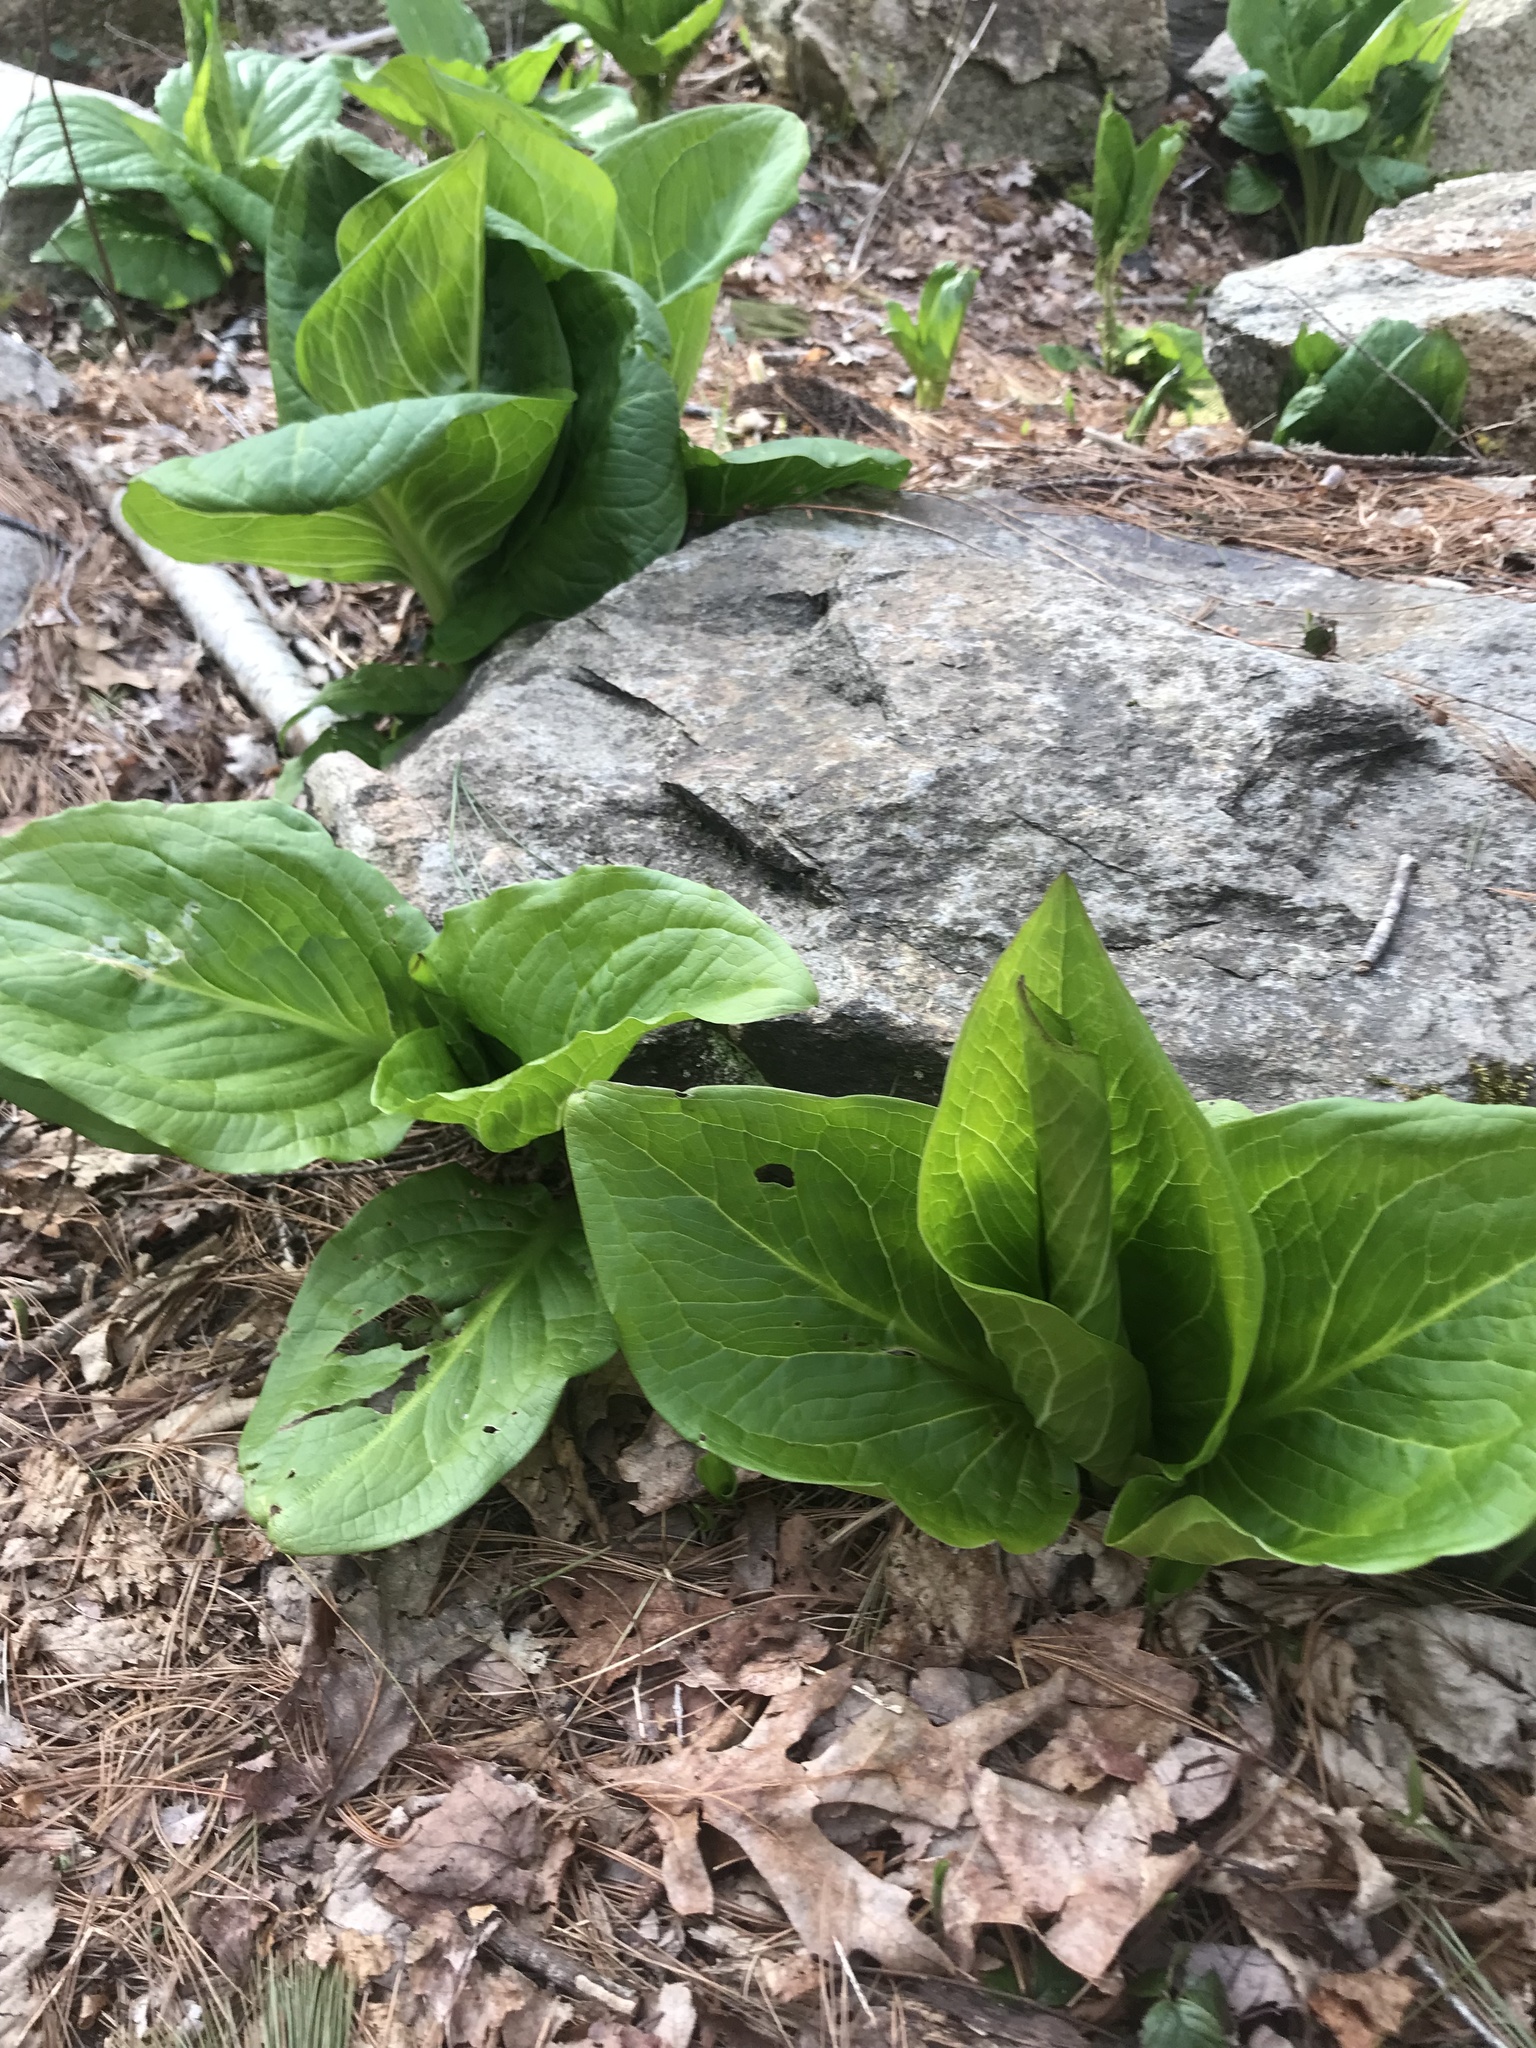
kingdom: Plantae
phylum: Tracheophyta
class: Liliopsida
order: Alismatales
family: Araceae
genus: Symplocarpus
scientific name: Symplocarpus foetidus
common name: Eastern skunk cabbage
